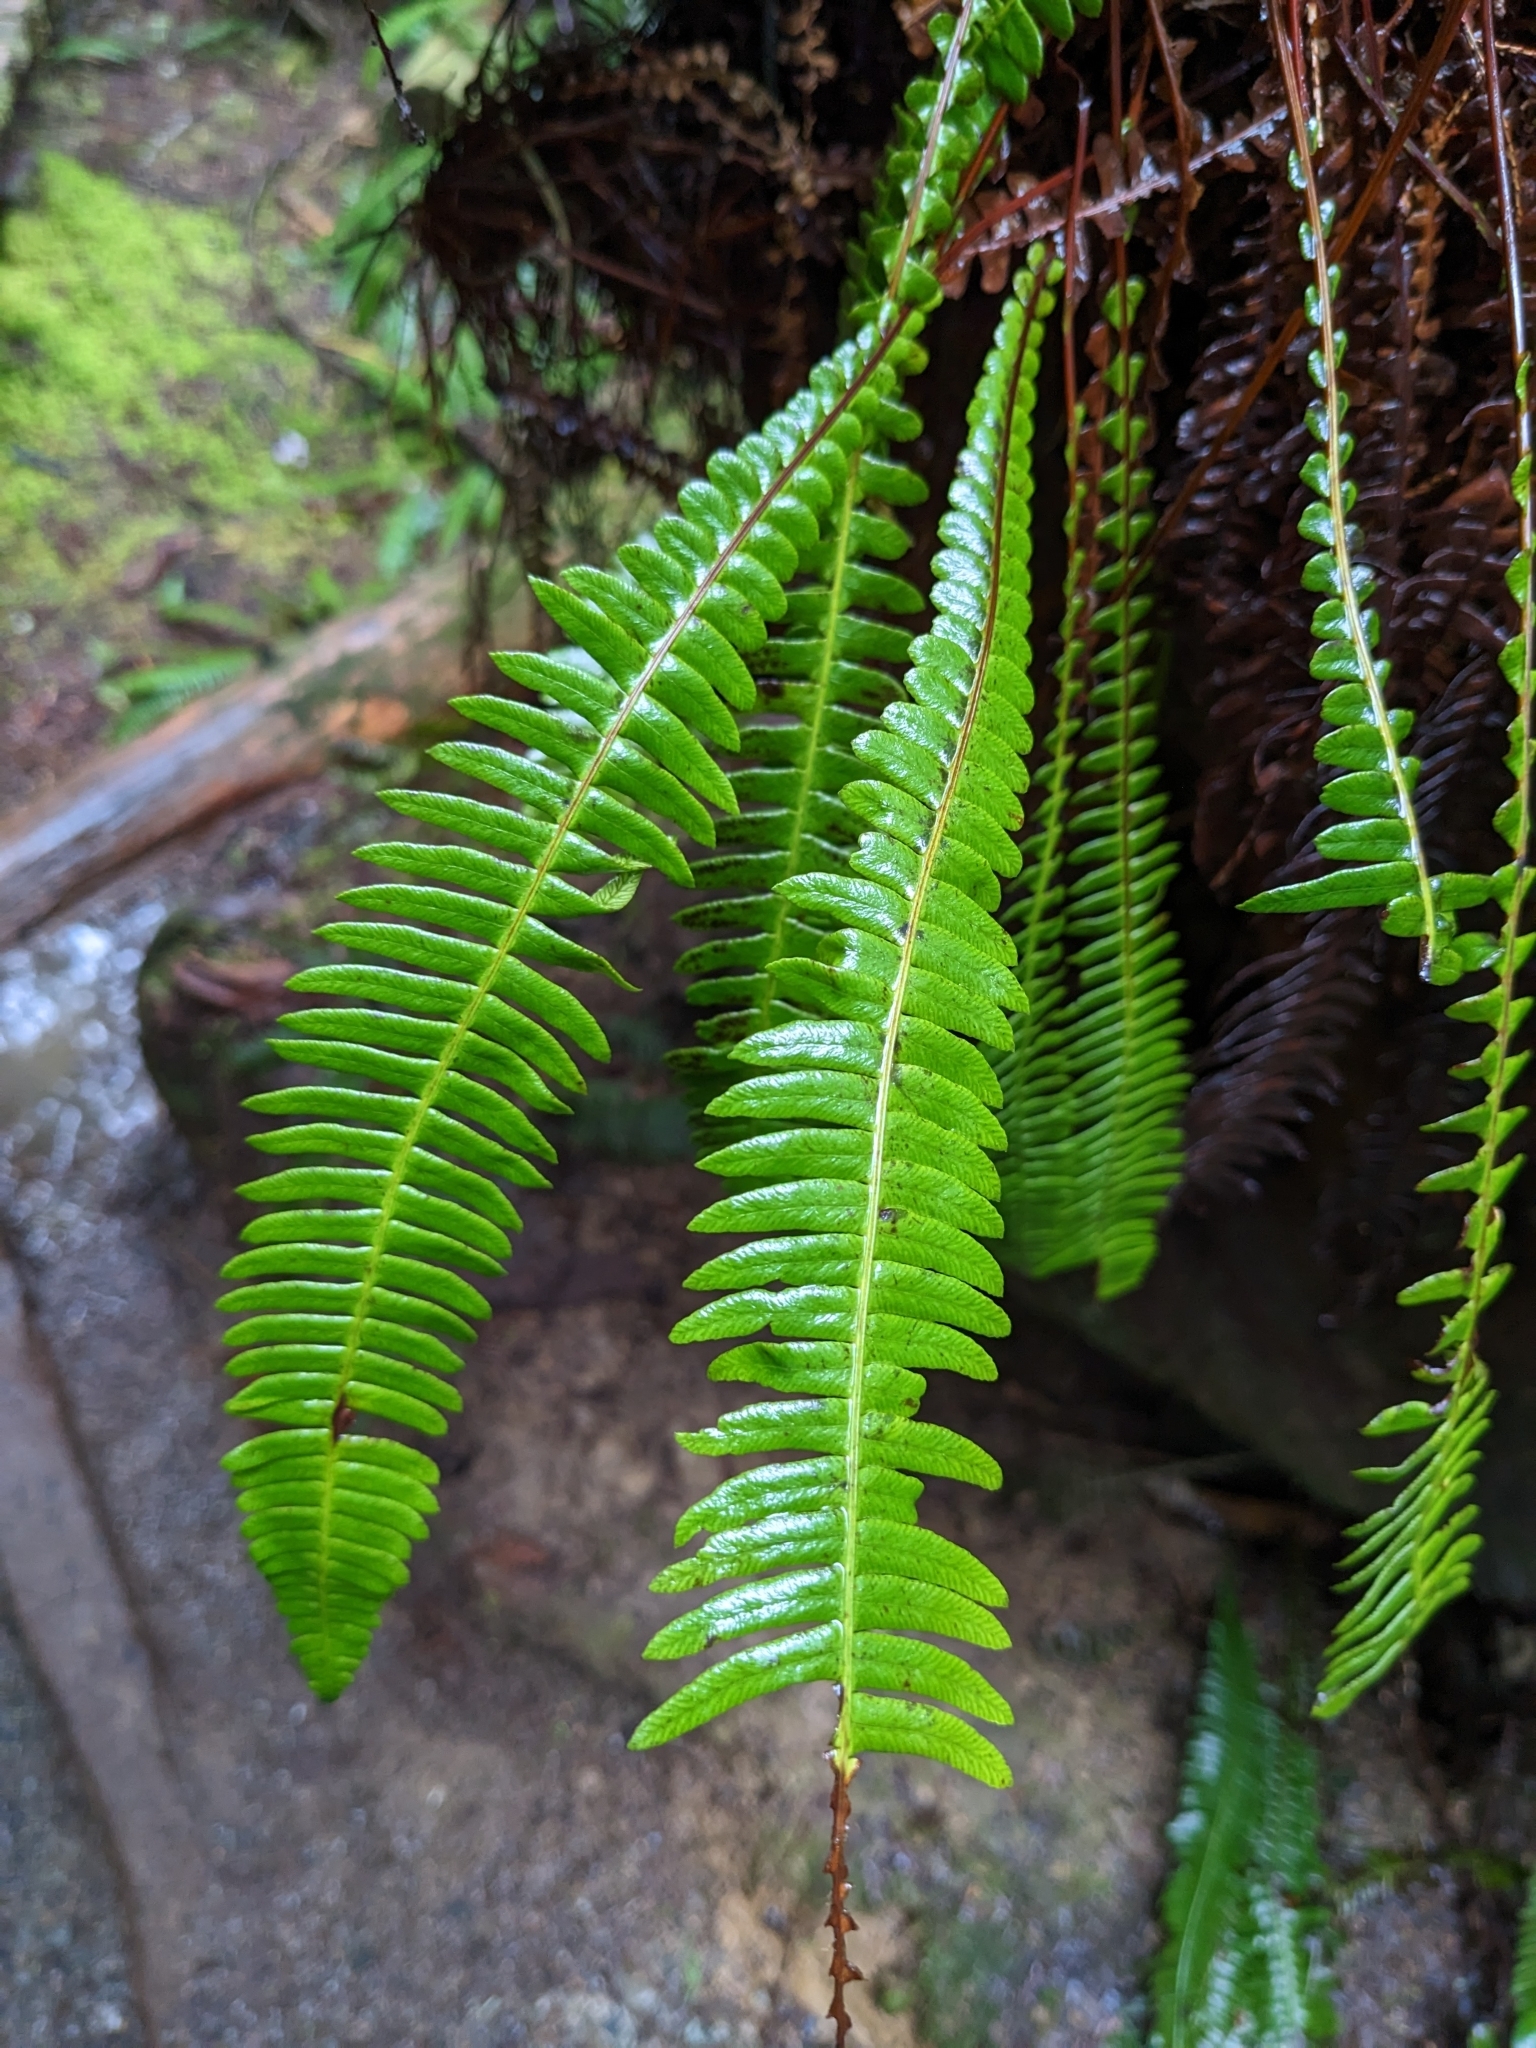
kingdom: Plantae
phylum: Tracheophyta
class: Polypodiopsida
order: Polypodiales
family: Blechnaceae
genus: Struthiopteris
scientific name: Struthiopteris spicant
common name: Deer fern
